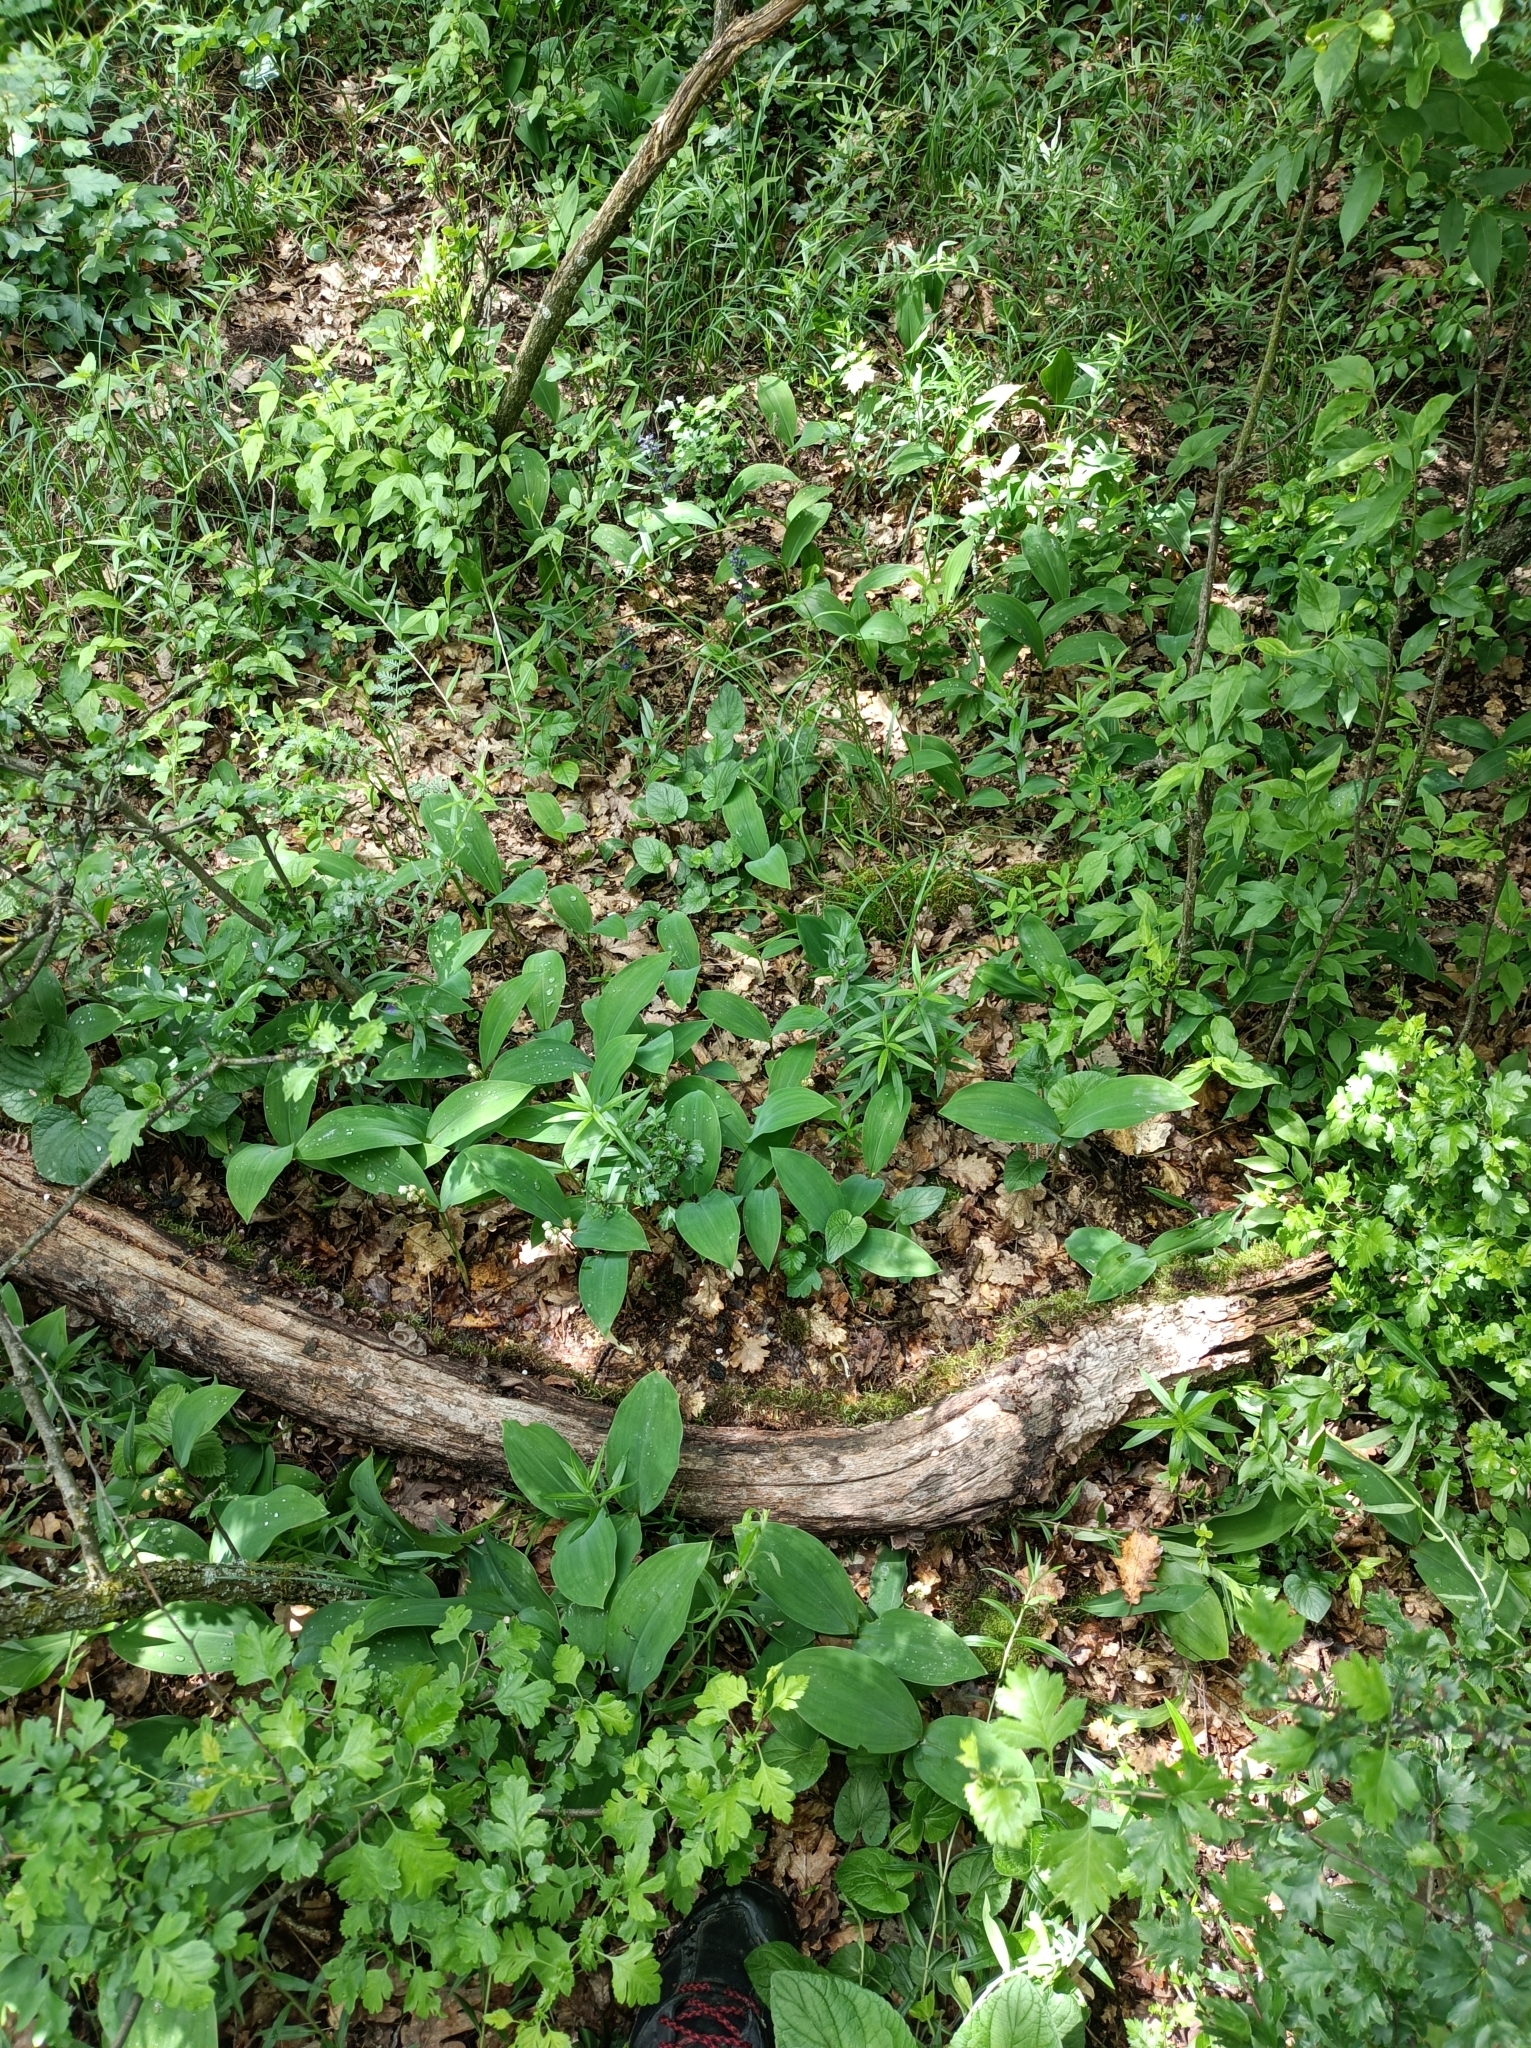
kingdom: Animalia
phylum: Arthropoda
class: Insecta
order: Hymenoptera
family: Formicidae
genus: Lasius
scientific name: Lasius brunneus
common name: Brown ant
